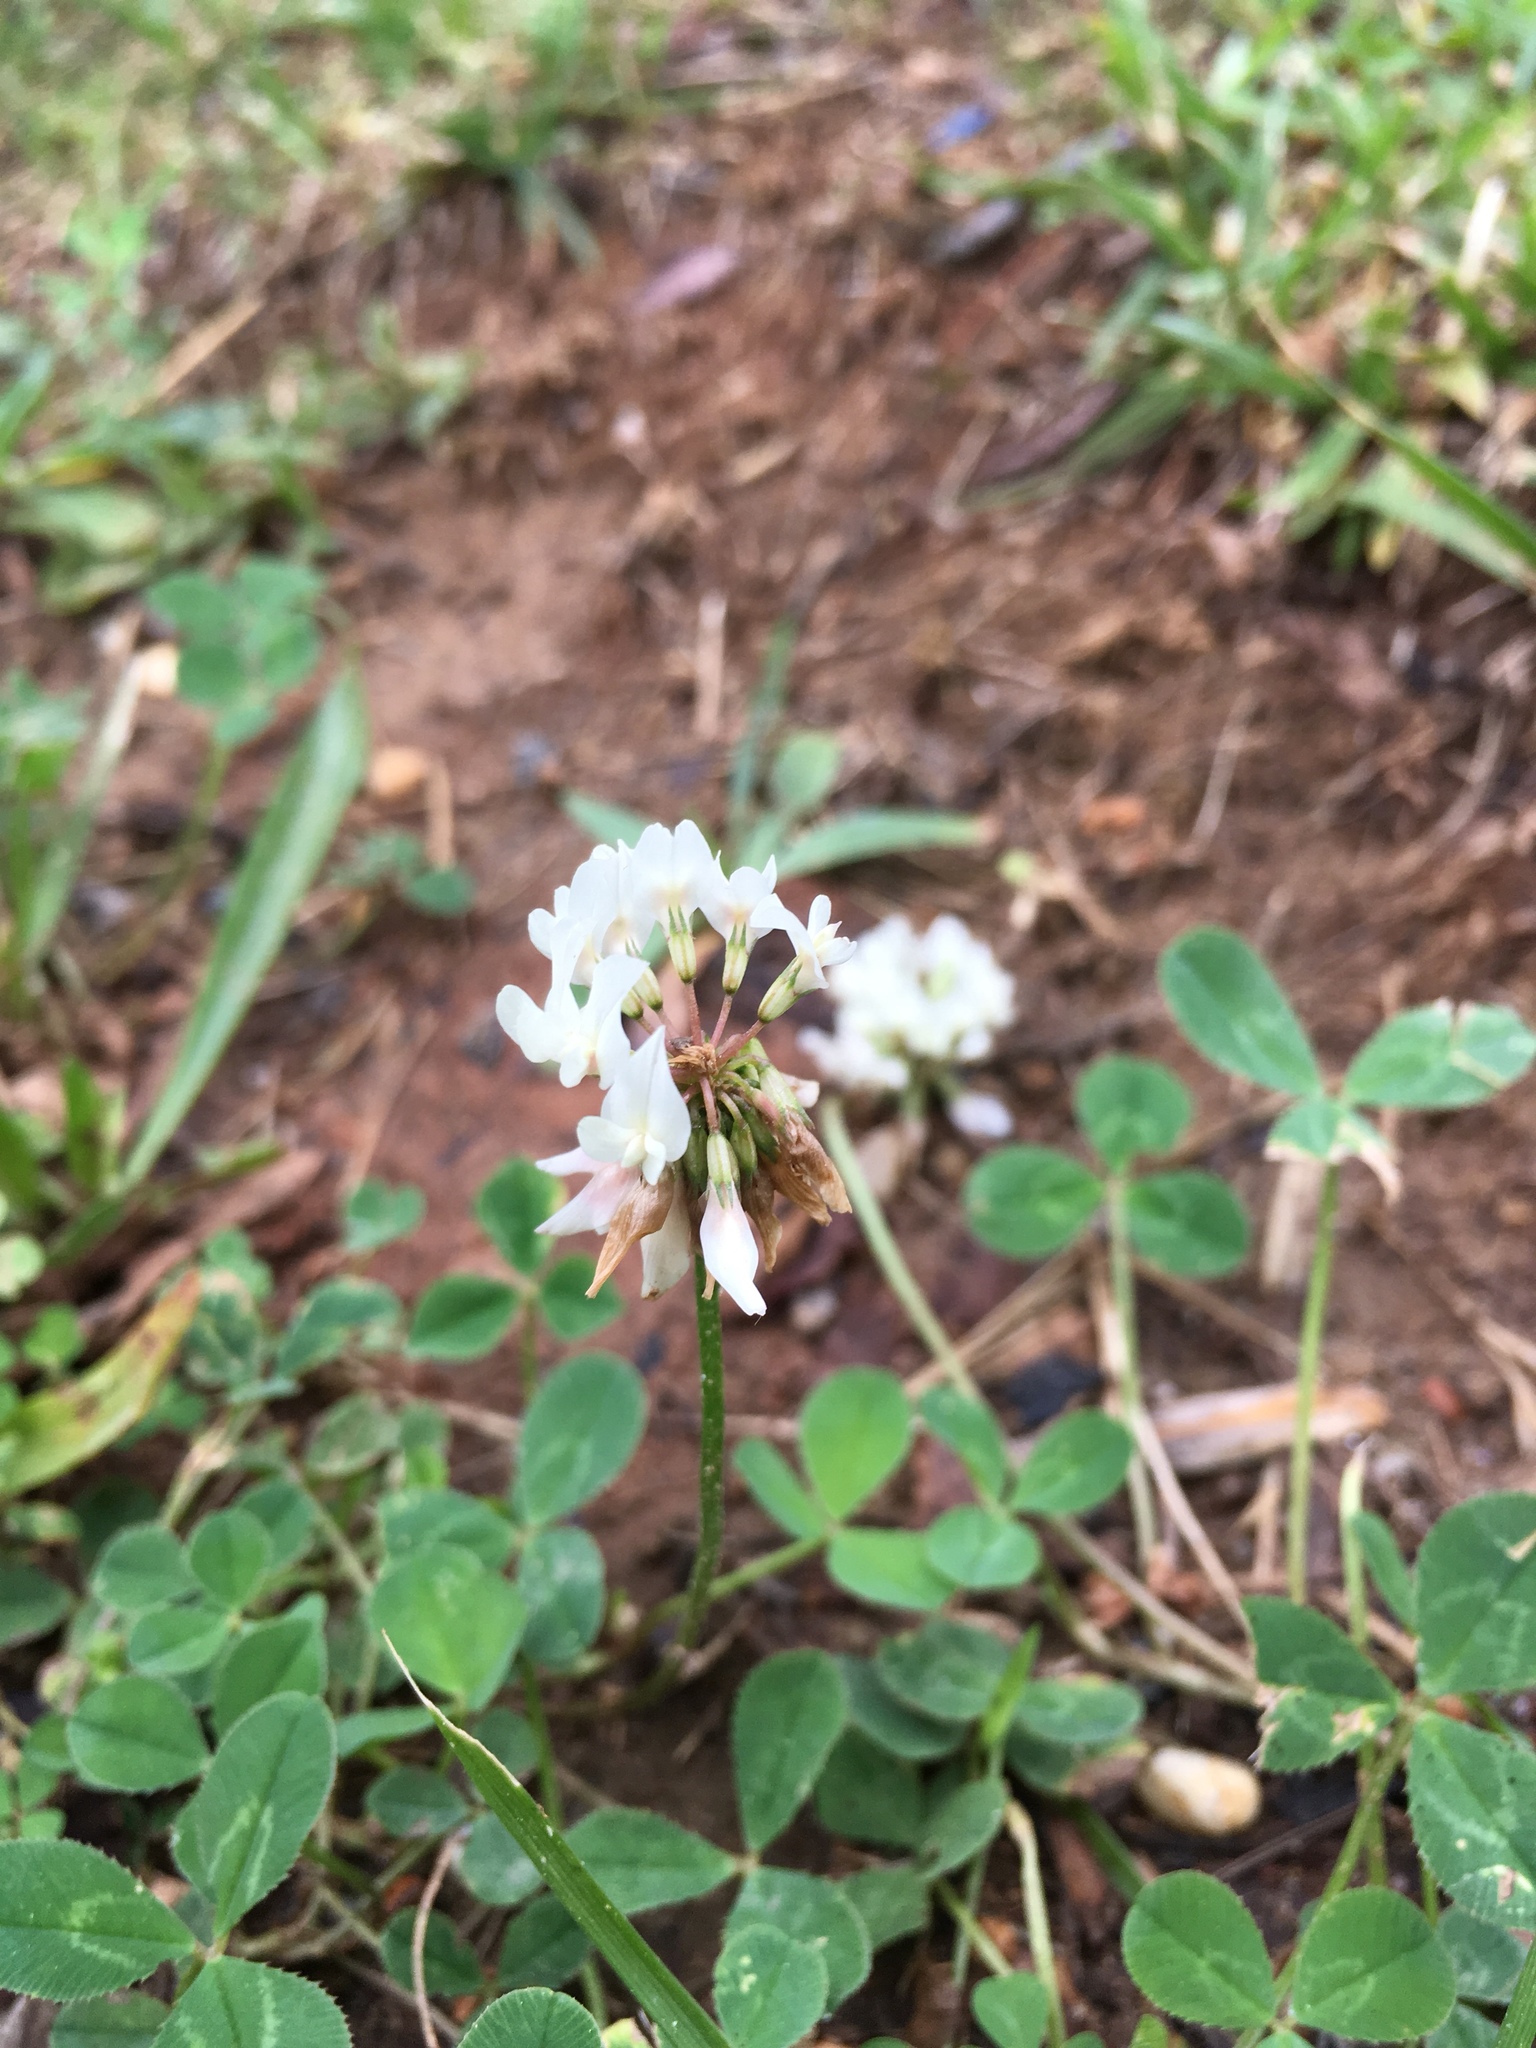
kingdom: Plantae
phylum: Tracheophyta
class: Magnoliopsida
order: Fabales
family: Fabaceae
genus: Trifolium
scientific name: Trifolium repens
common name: White clover
